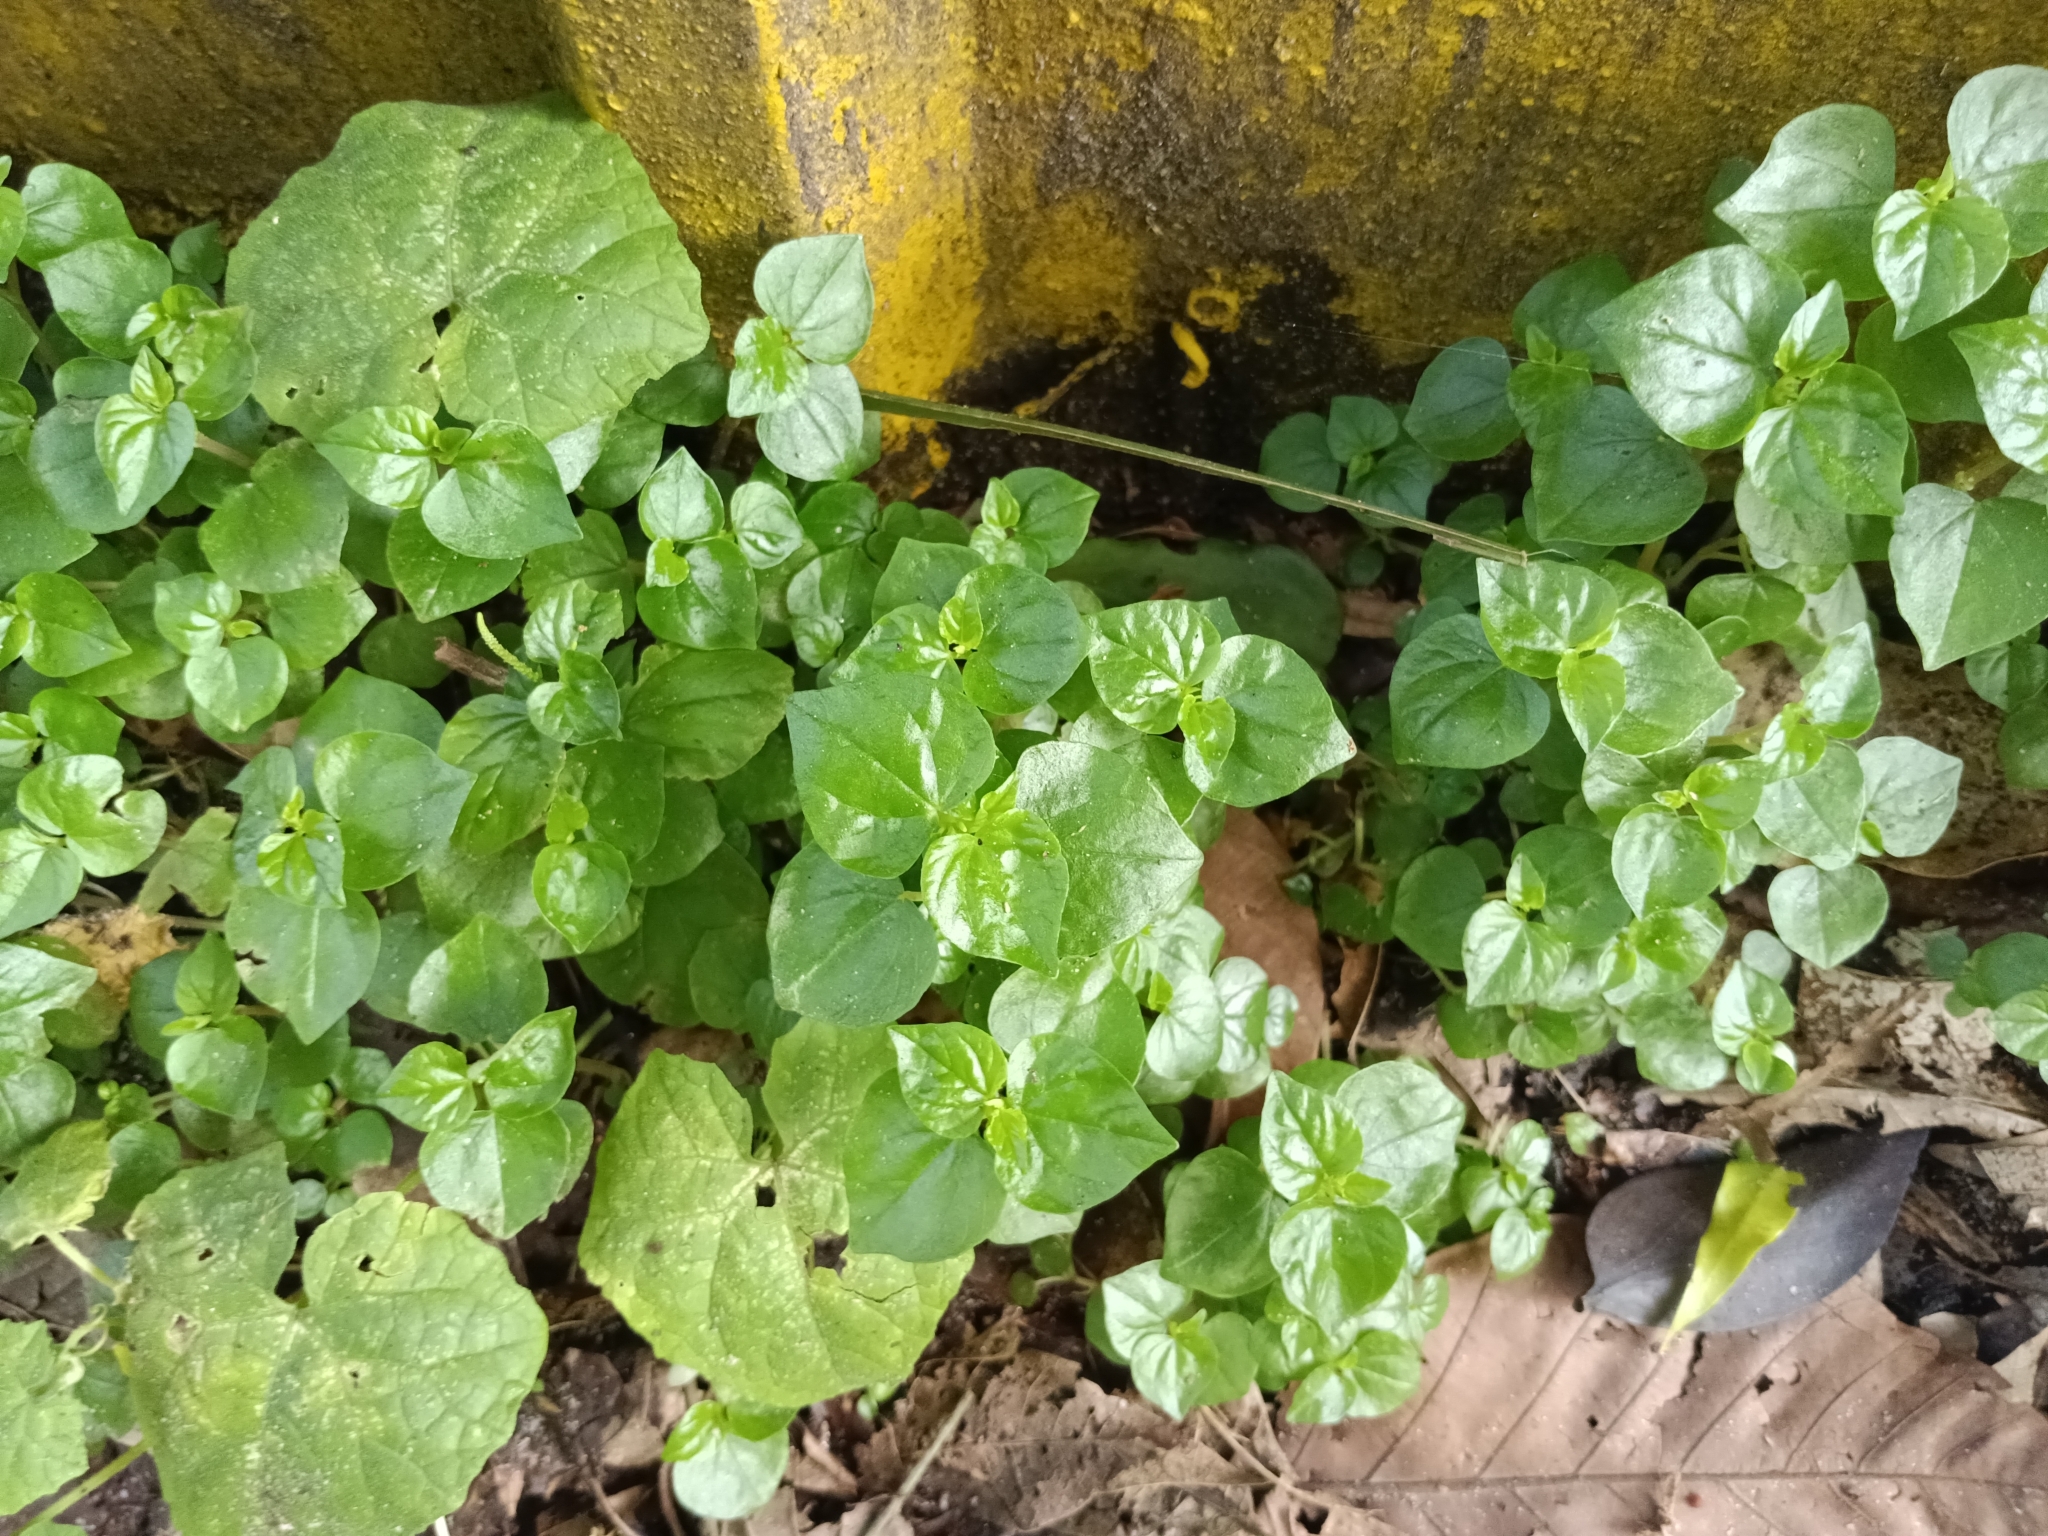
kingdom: Plantae
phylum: Tracheophyta
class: Magnoliopsida
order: Piperales
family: Piperaceae
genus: Peperomia
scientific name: Peperomia pellucida
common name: Man to man
